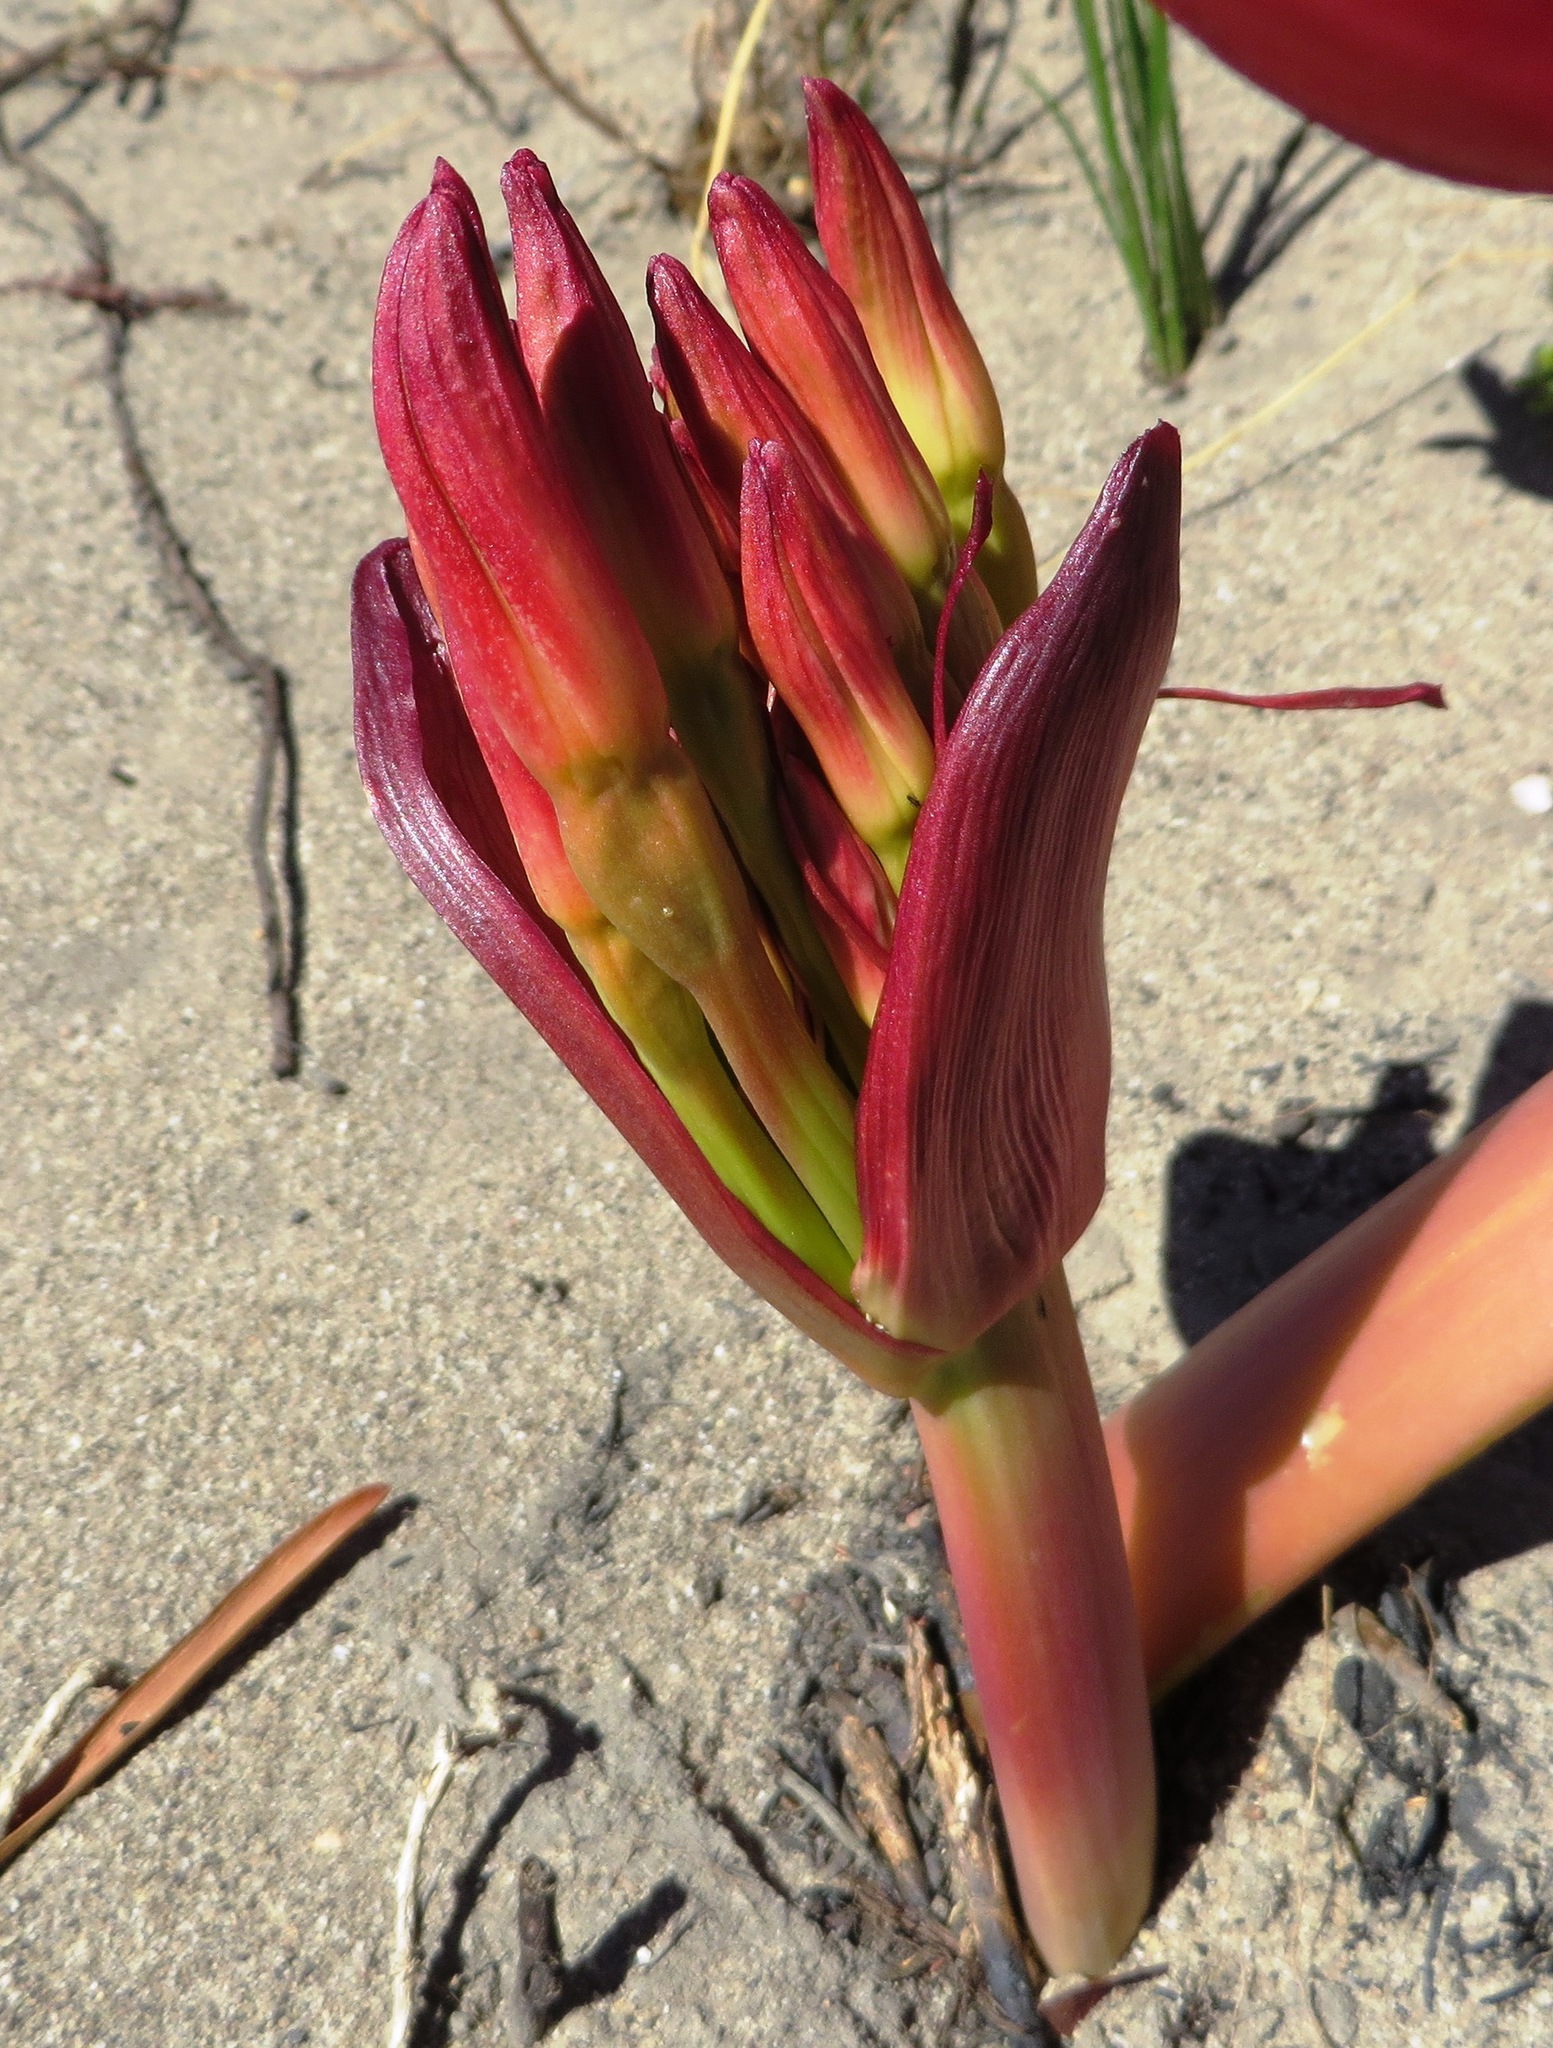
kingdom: Plantae
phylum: Tracheophyta
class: Liliopsida
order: Asparagales
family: Amaryllidaceae
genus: Brunsvigia
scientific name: Brunsvigia orientalis
